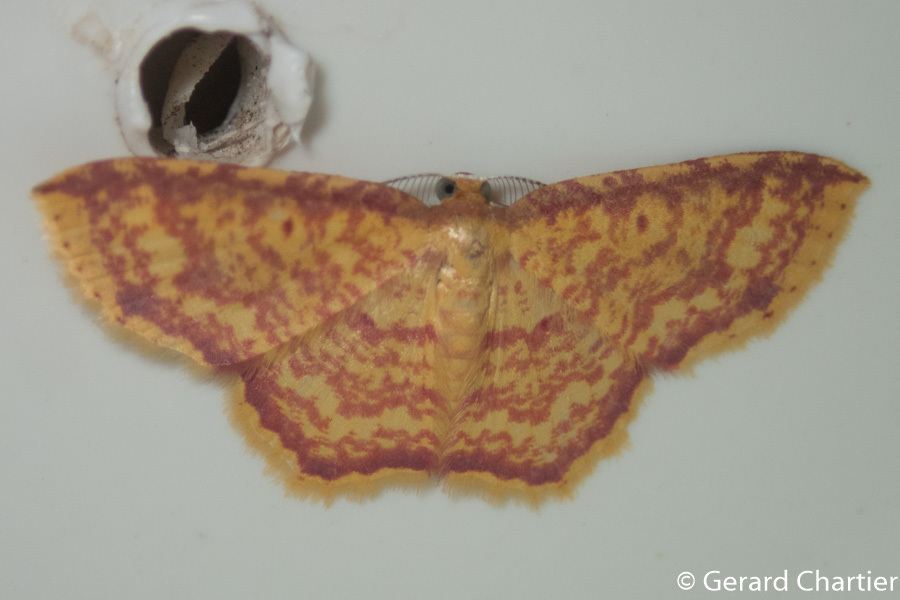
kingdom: Animalia
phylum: Arthropoda
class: Insecta
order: Lepidoptera
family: Geometridae
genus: Eois
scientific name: Eois lunulosa
